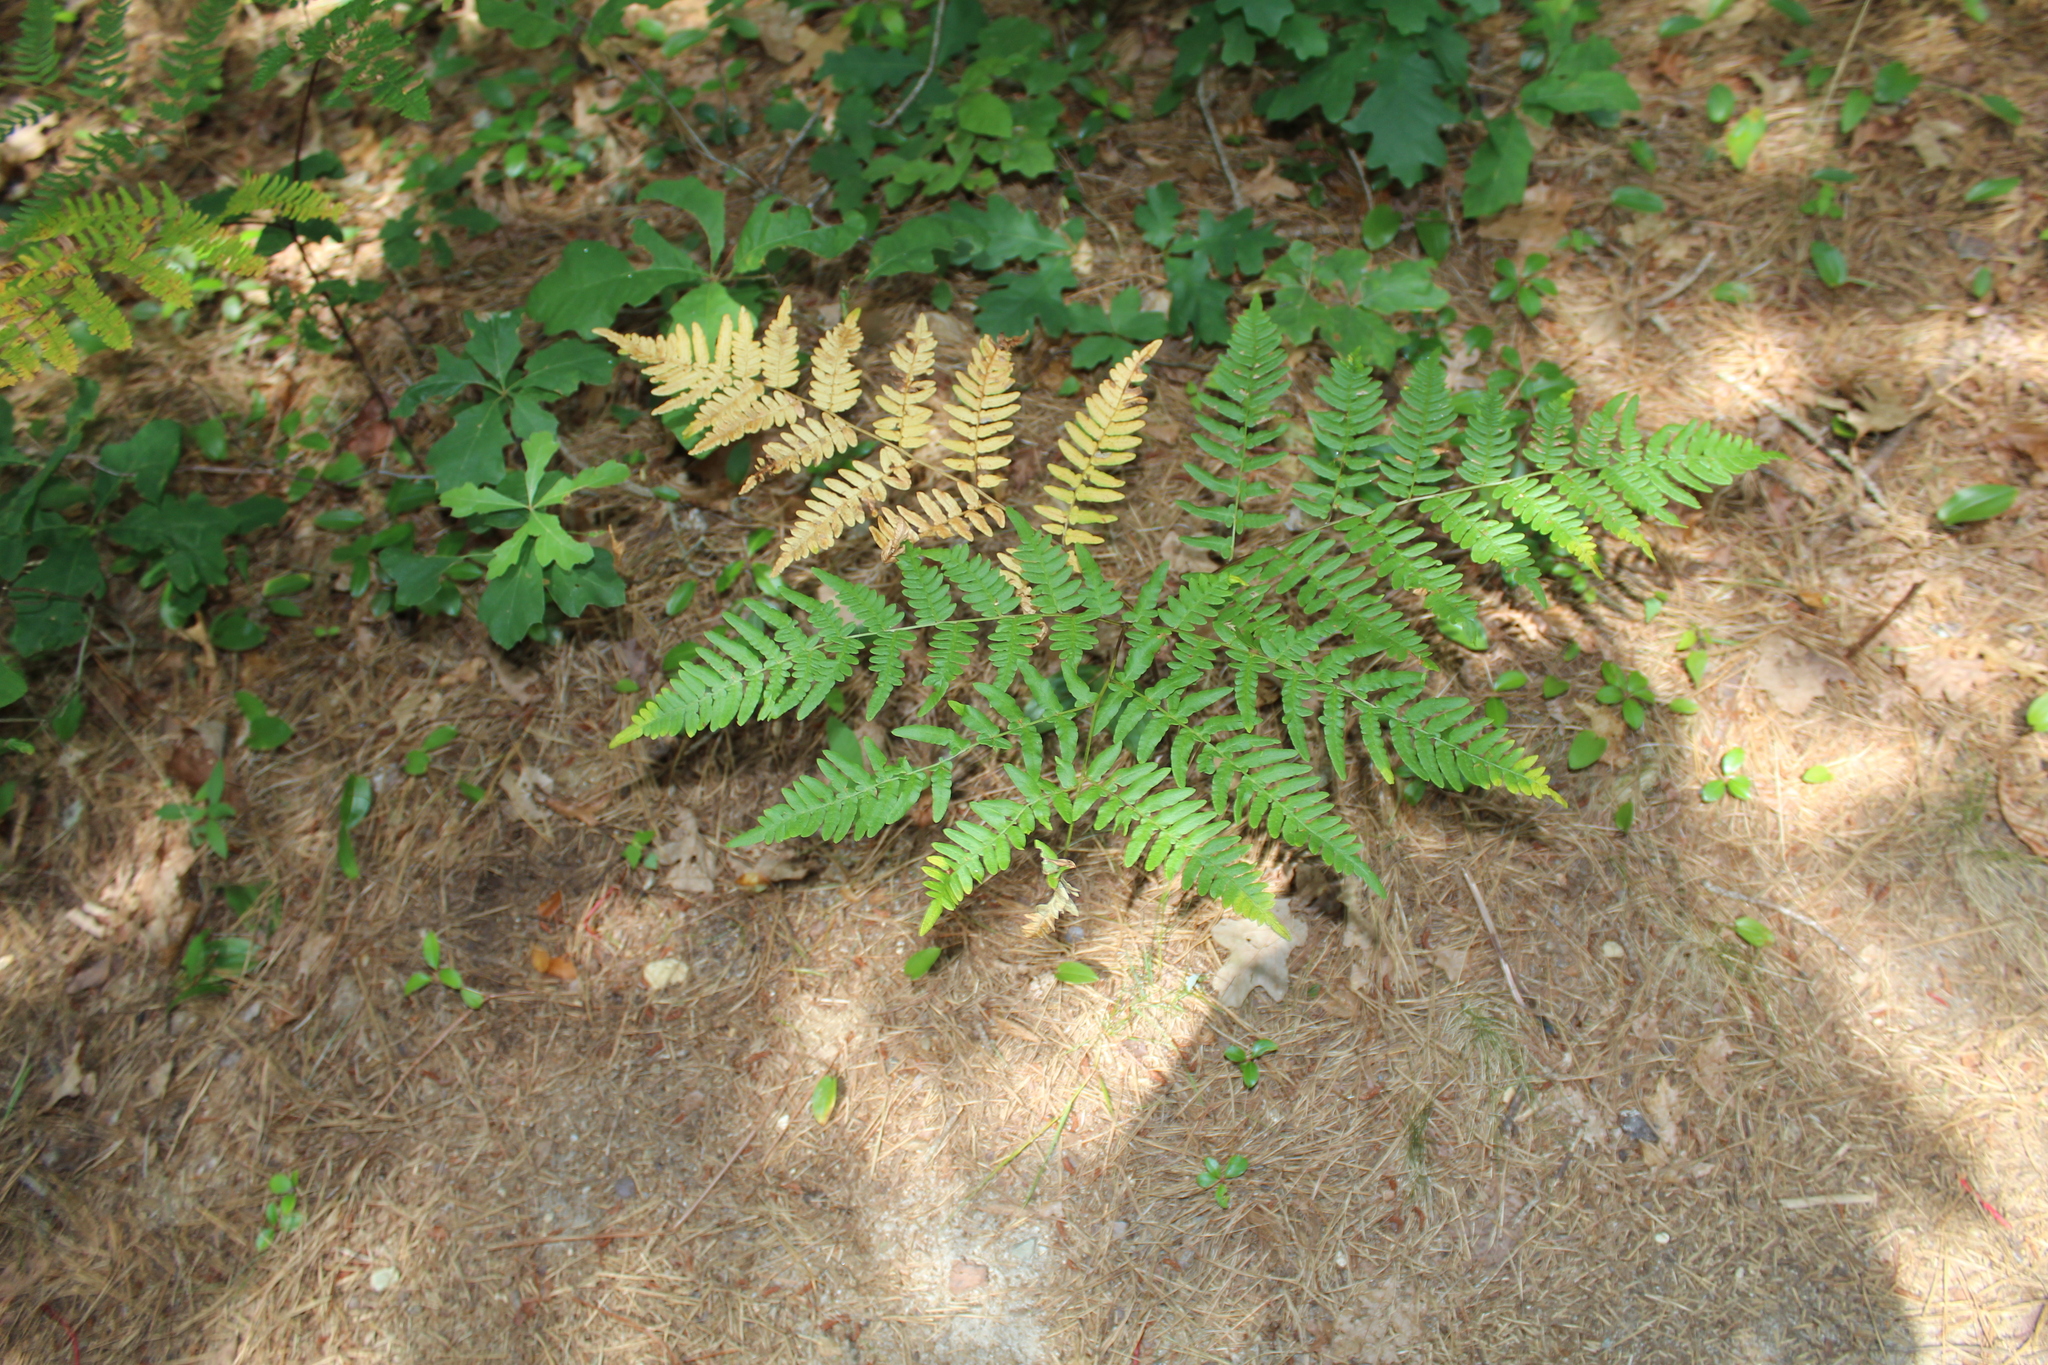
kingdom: Plantae
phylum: Tracheophyta
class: Polypodiopsida
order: Polypodiales
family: Dennstaedtiaceae
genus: Pteridium
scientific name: Pteridium aquilinum
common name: Bracken
